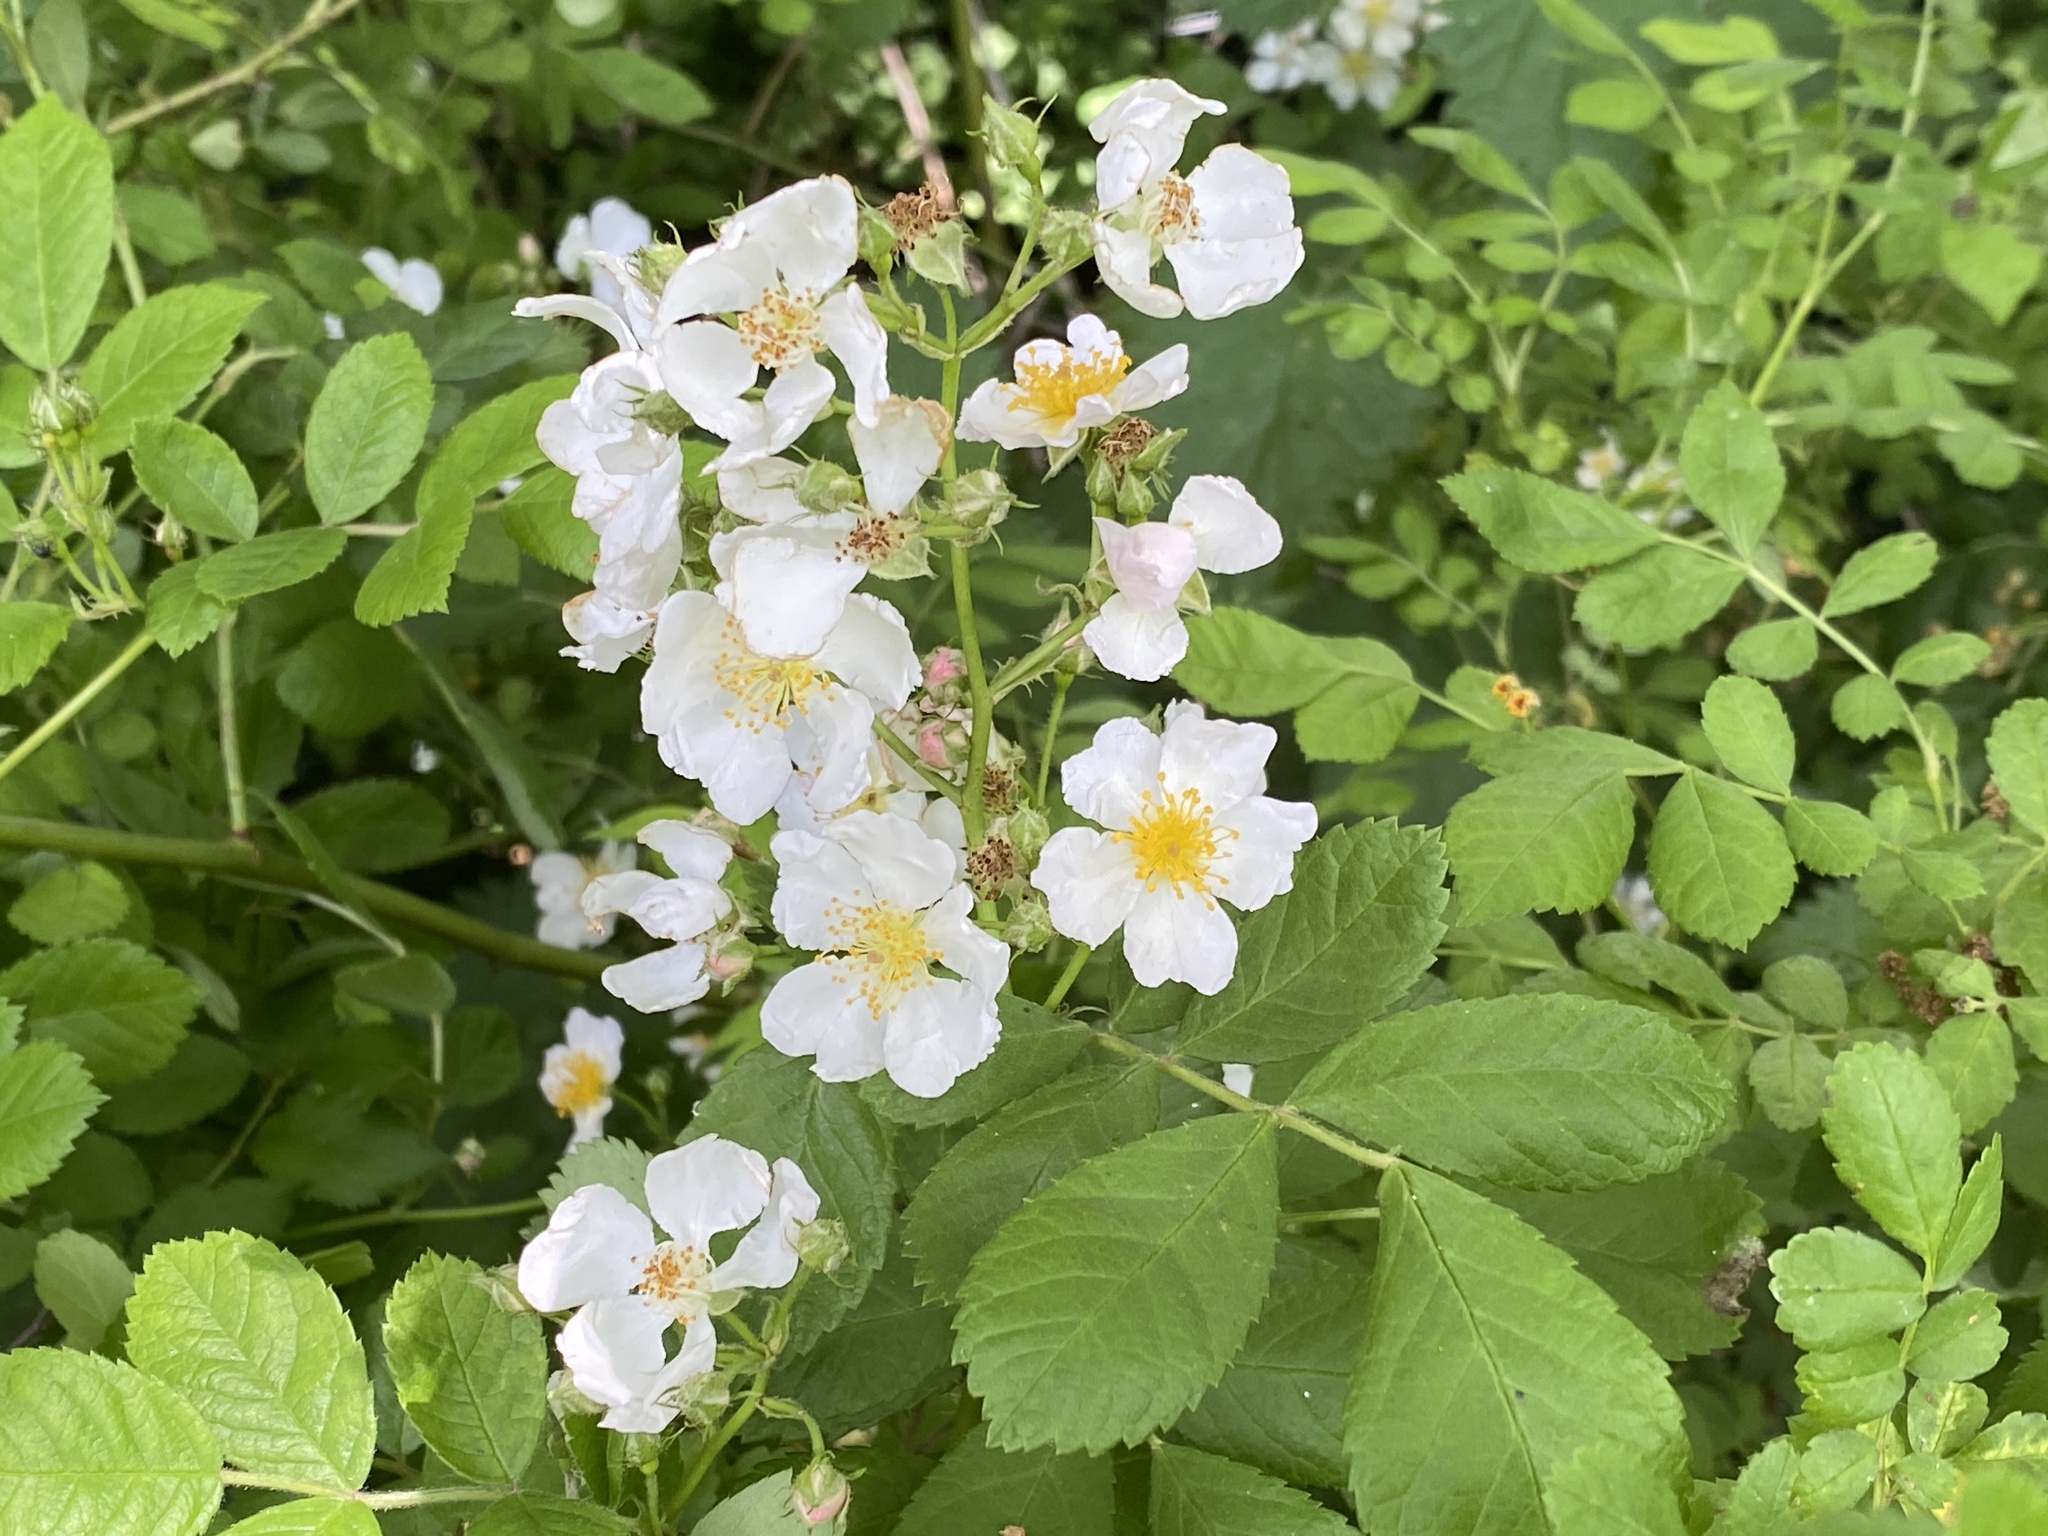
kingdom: Plantae
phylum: Tracheophyta
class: Magnoliopsida
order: Rosales
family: Rosaceae
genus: Rosa
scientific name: Rosa multiflora
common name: Multiflora rose
